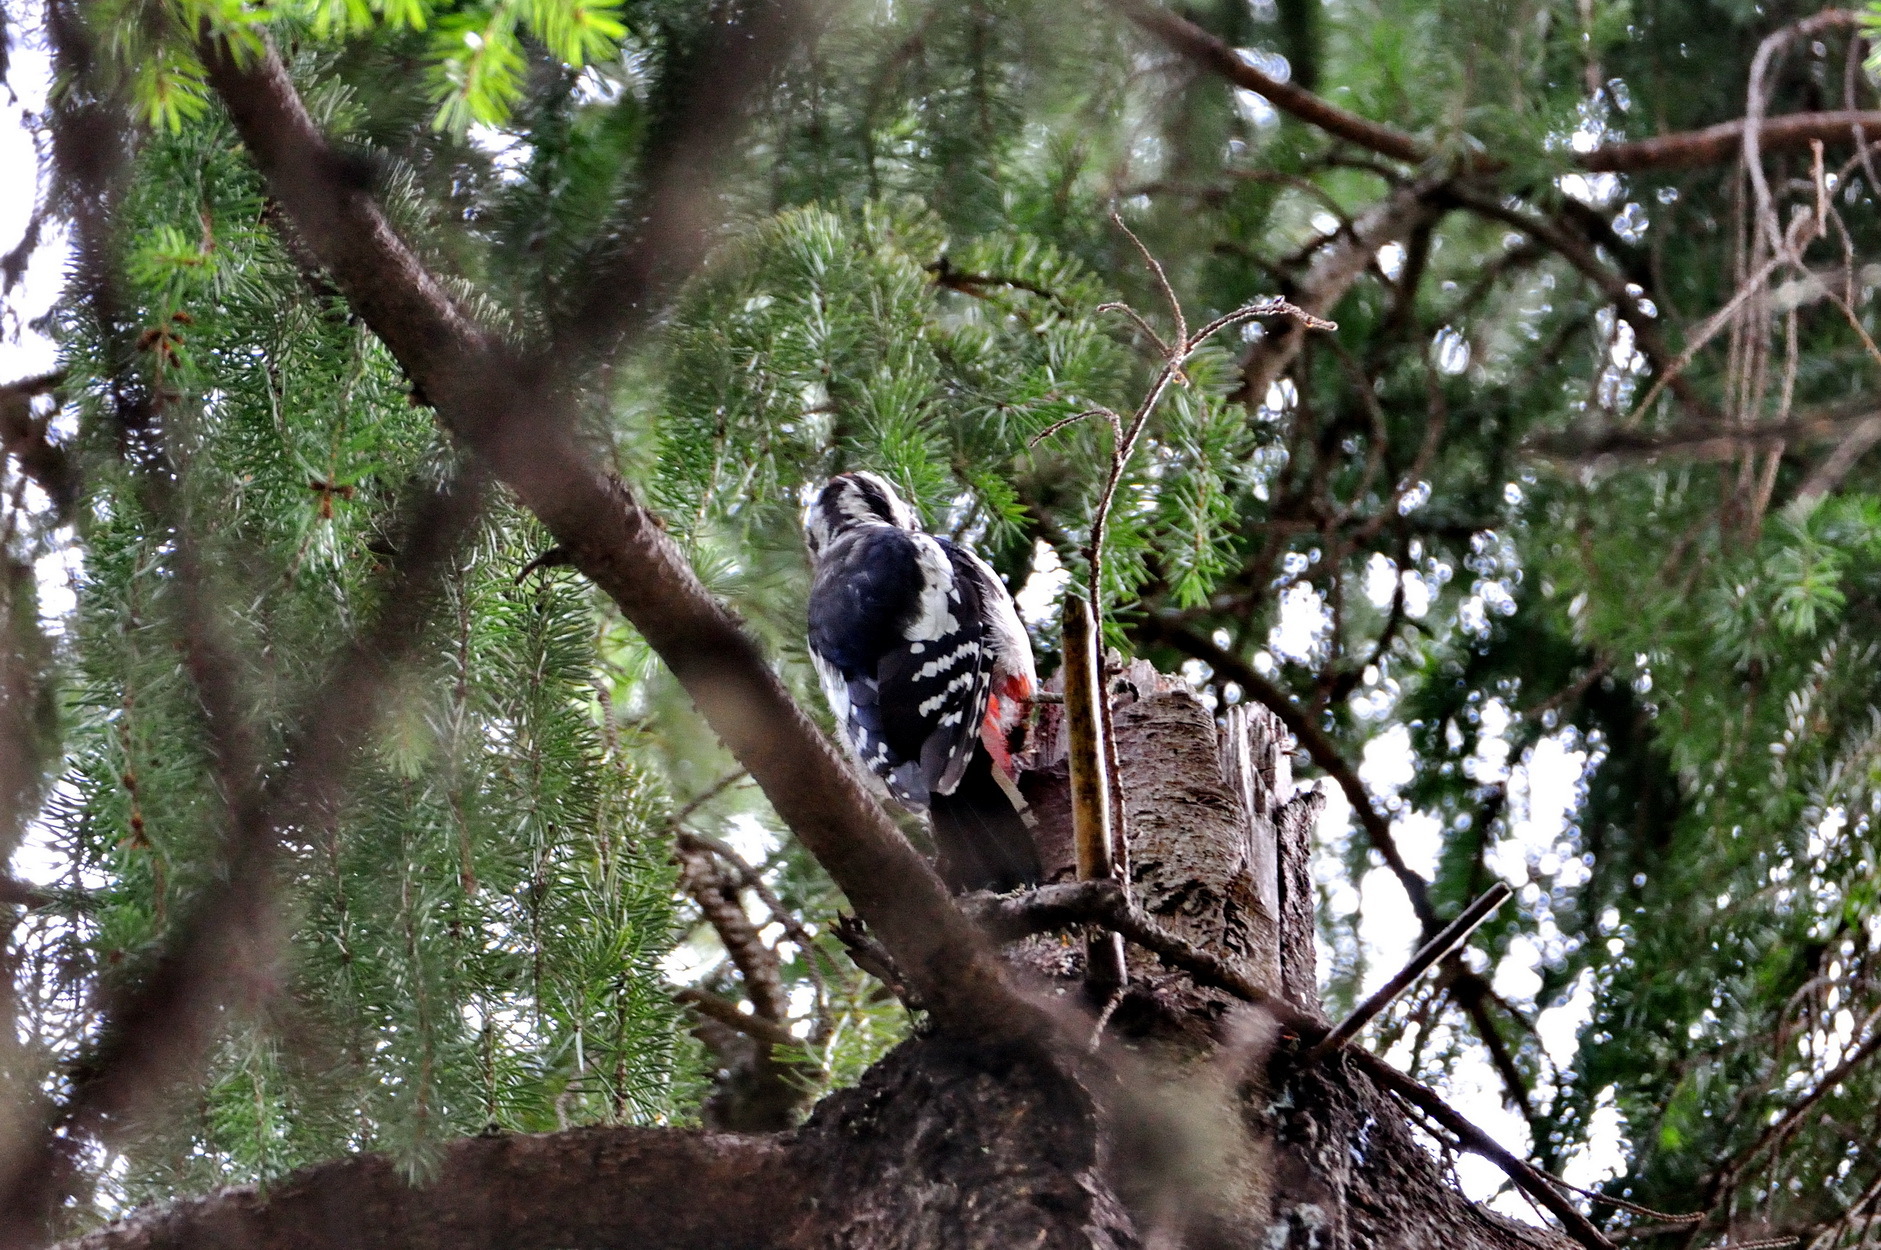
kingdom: Animalia
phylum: Chordata
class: Aves
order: Piciformes
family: Picidae
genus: Dendrocopos
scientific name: Dendrocopos major
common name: Great spotted woodpecker
